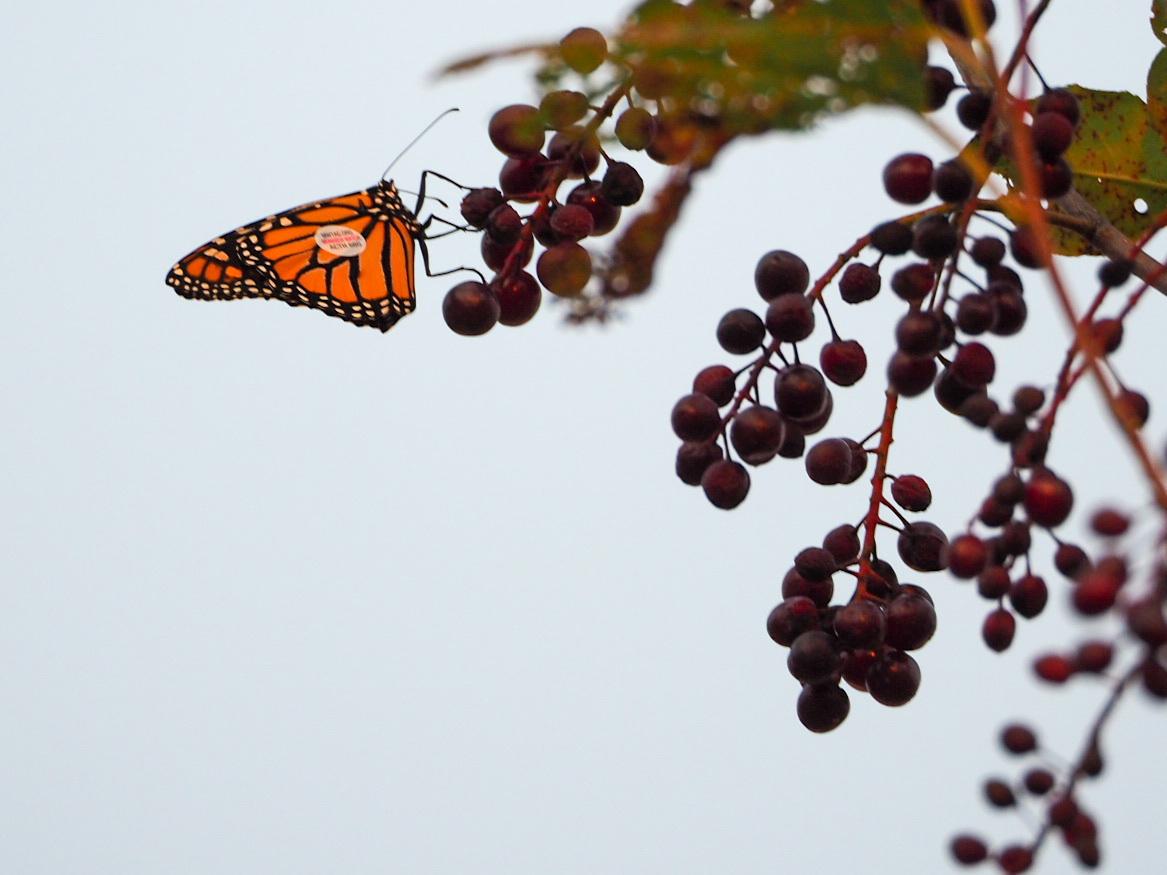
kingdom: Animalia
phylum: Arthropoda
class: Insecta
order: Lepidoptera
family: Nymphalidae
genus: Danaus
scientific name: Danaus plexippus
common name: Monarch
